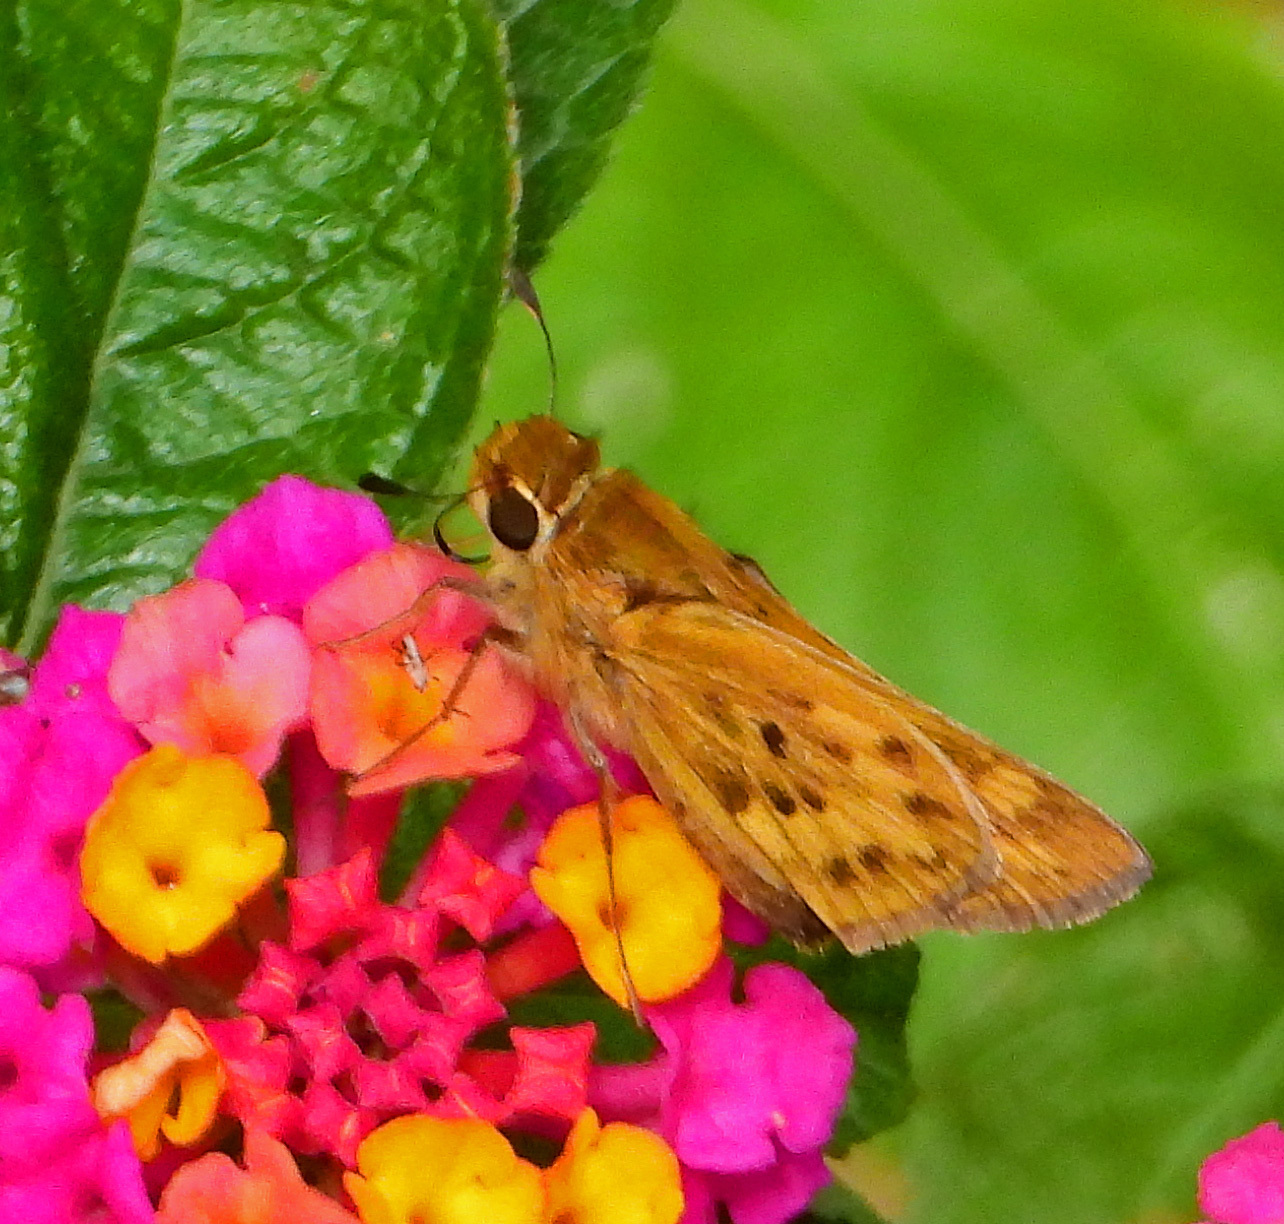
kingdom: Animalia
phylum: Arthropoda
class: Insecta
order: Lepidoptera
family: Hesperiidae
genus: Hylephila
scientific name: Hylephila phyleus
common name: Fiery skipper
